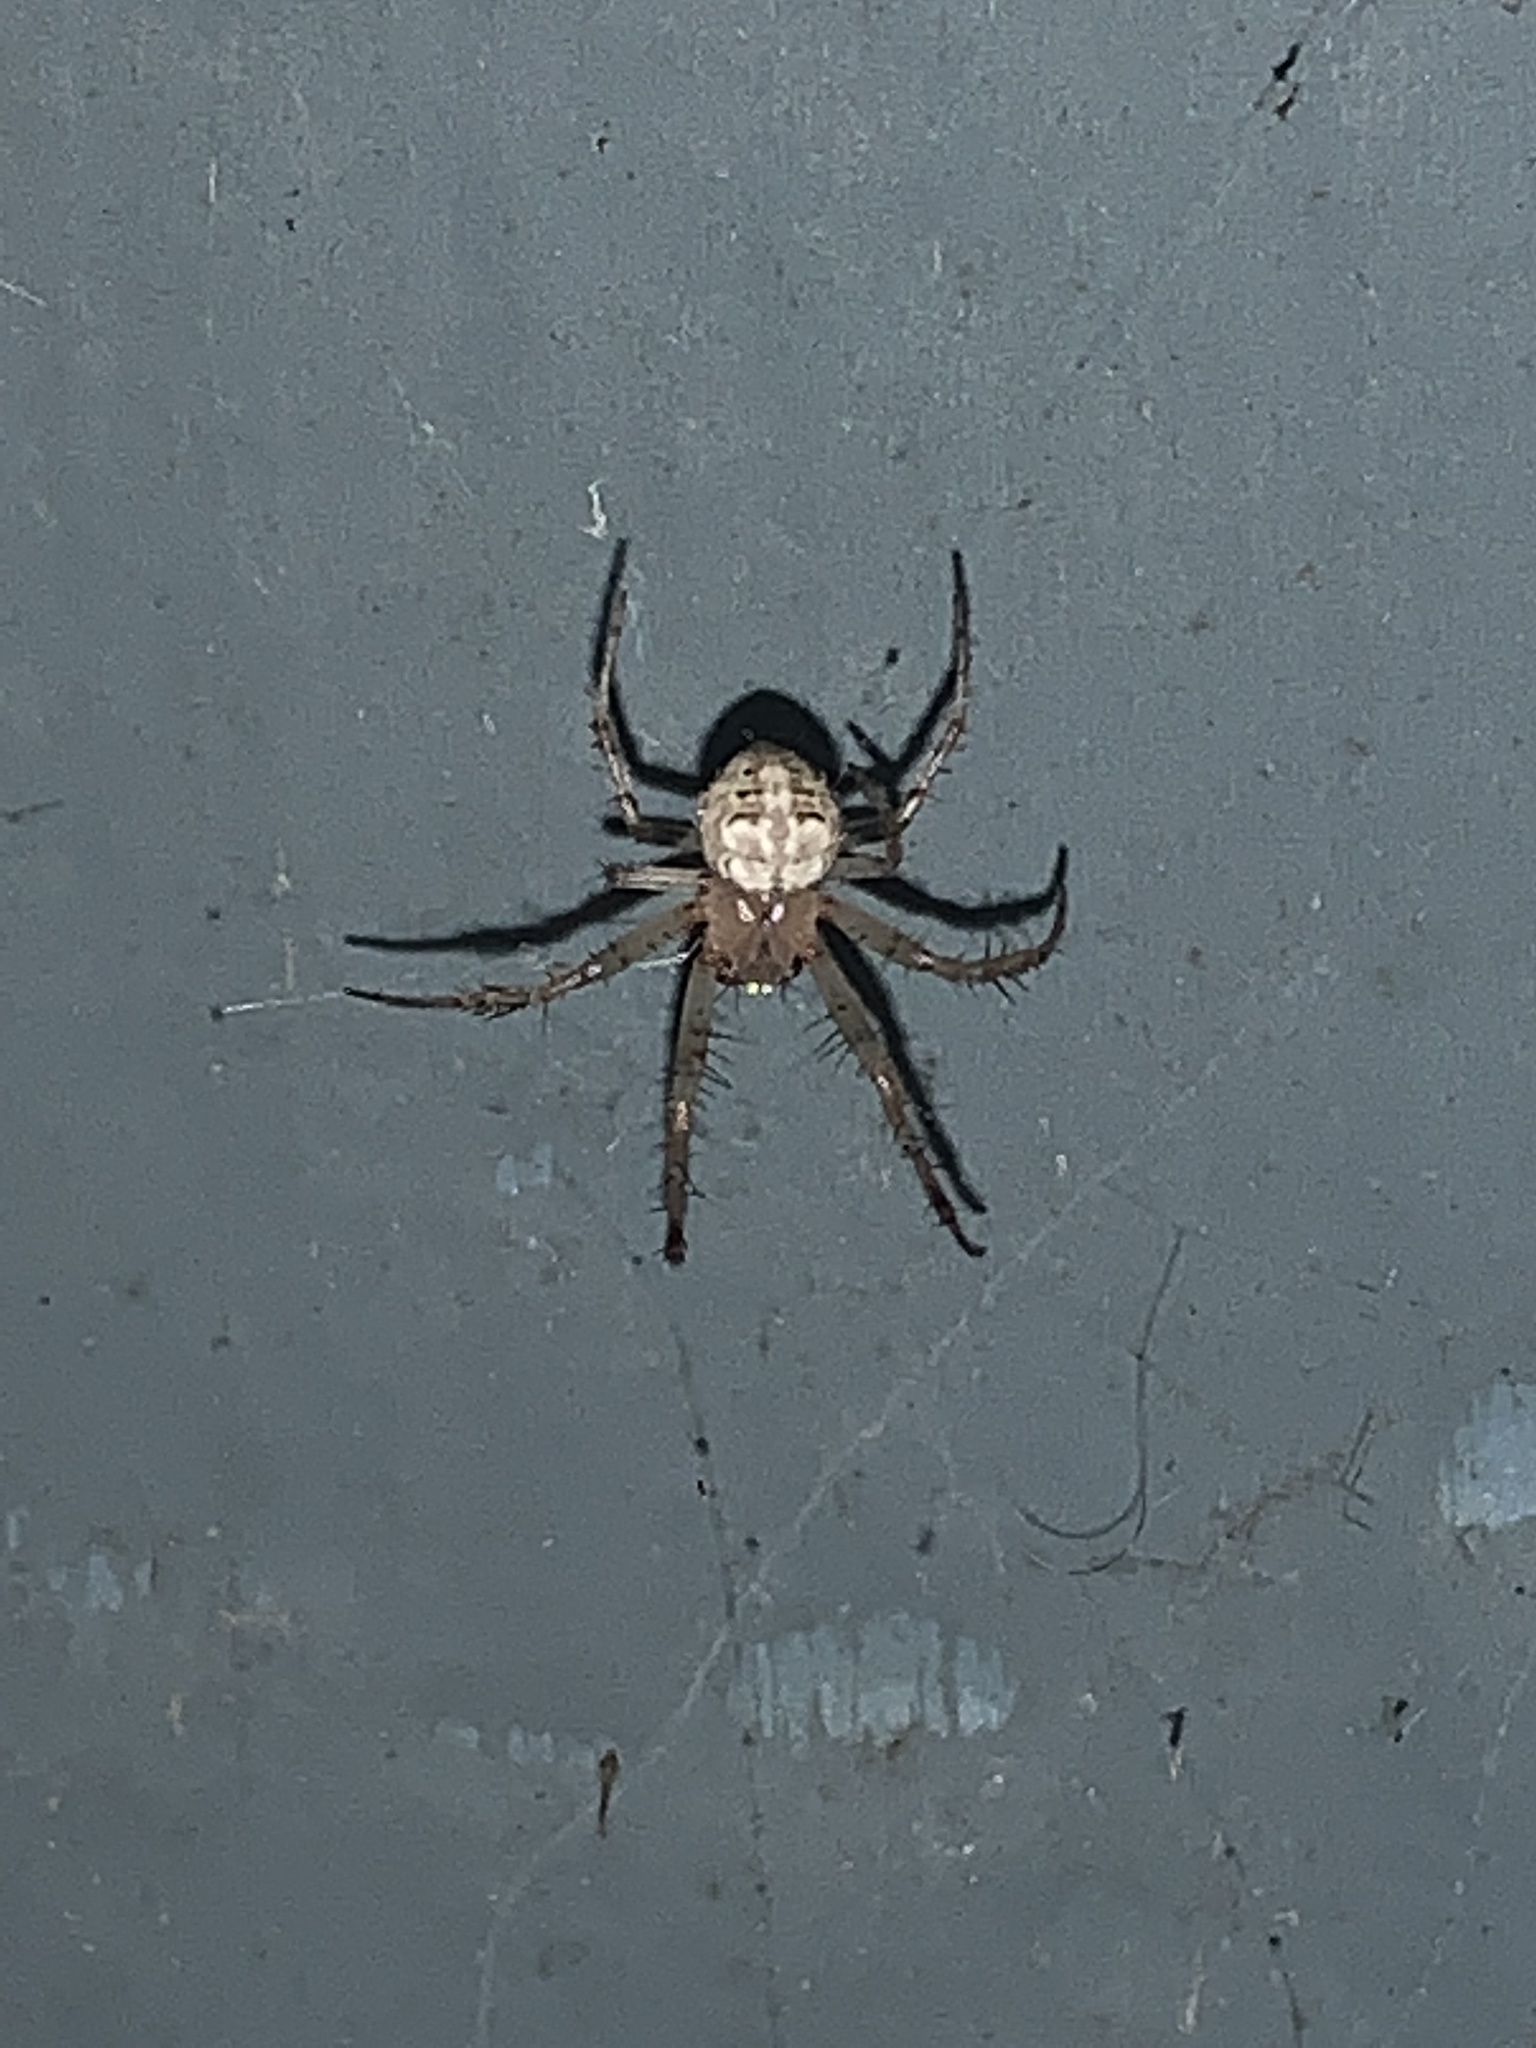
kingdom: Animalia
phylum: Arthropoda
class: Arachnida
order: Araneae
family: Araneidae
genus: Araneus
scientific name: Araneus pegnia
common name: Orb weavers
